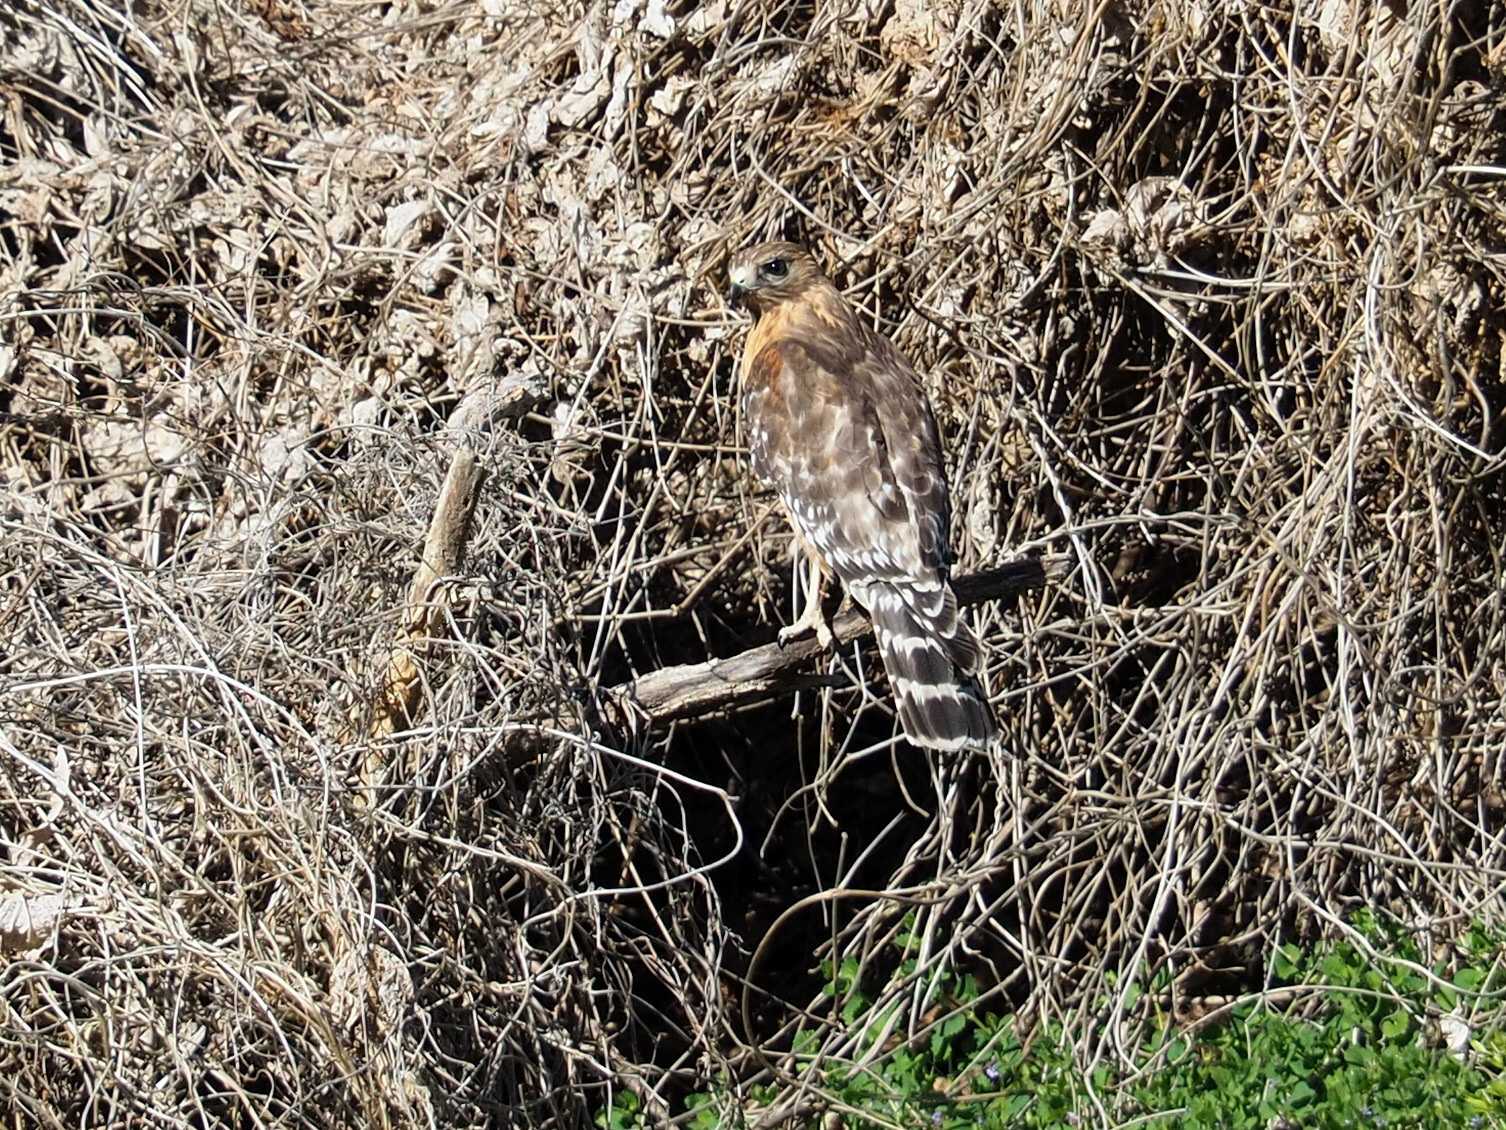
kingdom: Animalia
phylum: Chordata
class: Aves
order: Accipitriformes
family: Accipitridae
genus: Buteo
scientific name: Buteo lineatus
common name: Red-shouldered hawk
